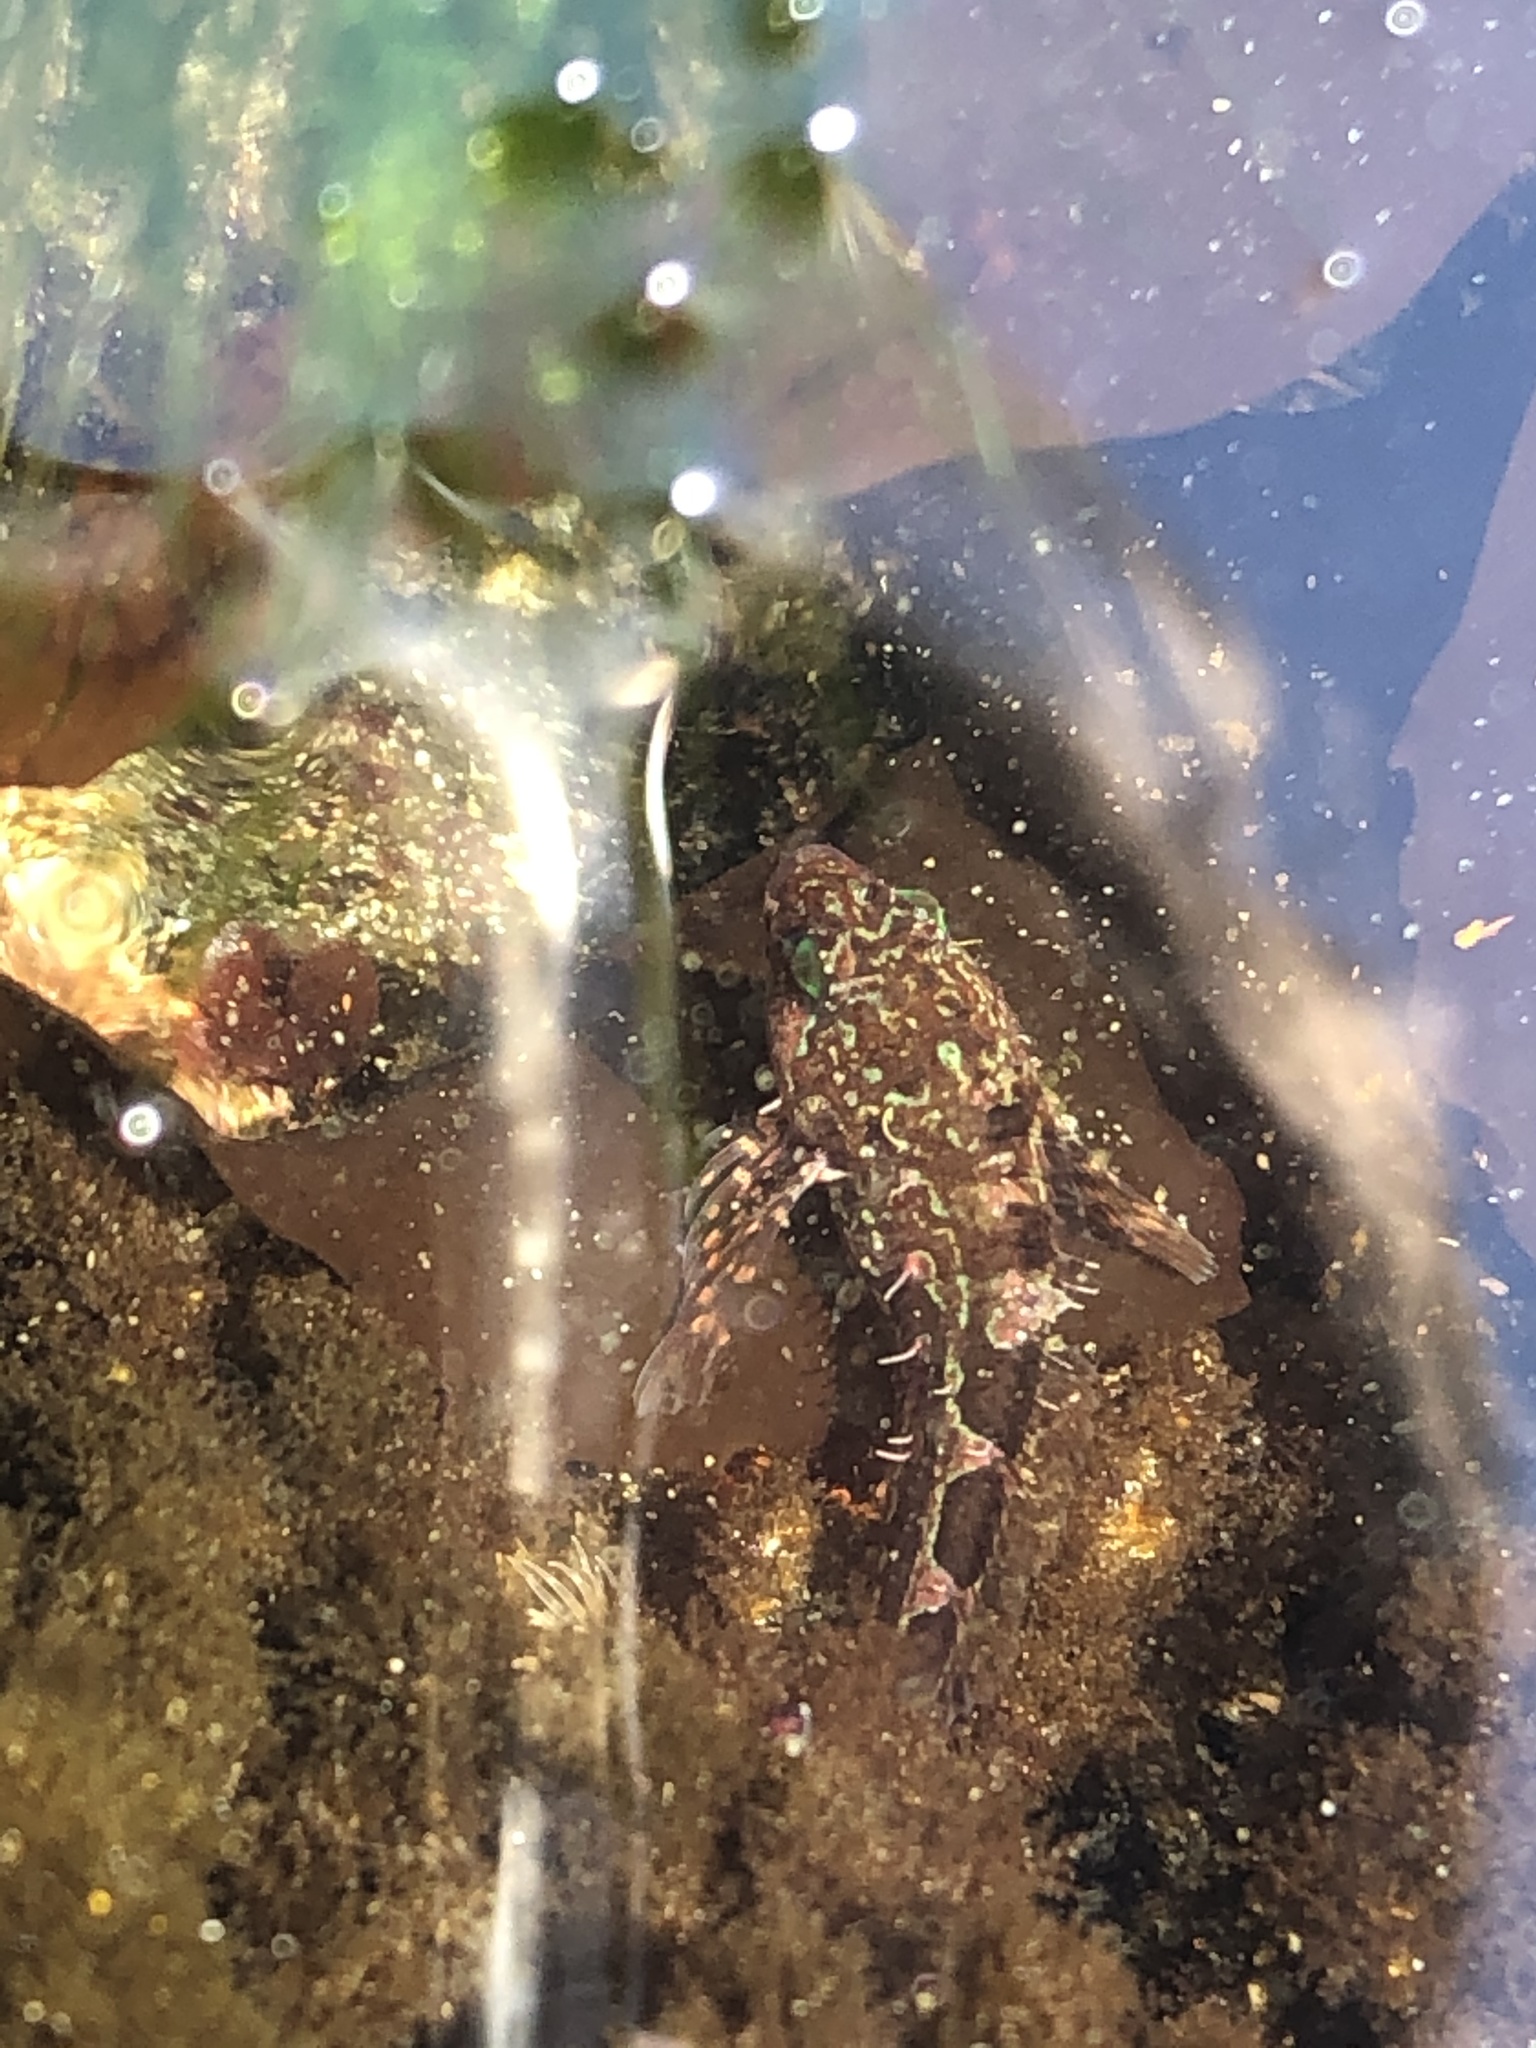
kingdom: Animalia
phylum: Chordata
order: Scorpaeniformes
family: Cottidae
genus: Oligocottus
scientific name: Oligocottus snyderi
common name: Fluffy sculpin
